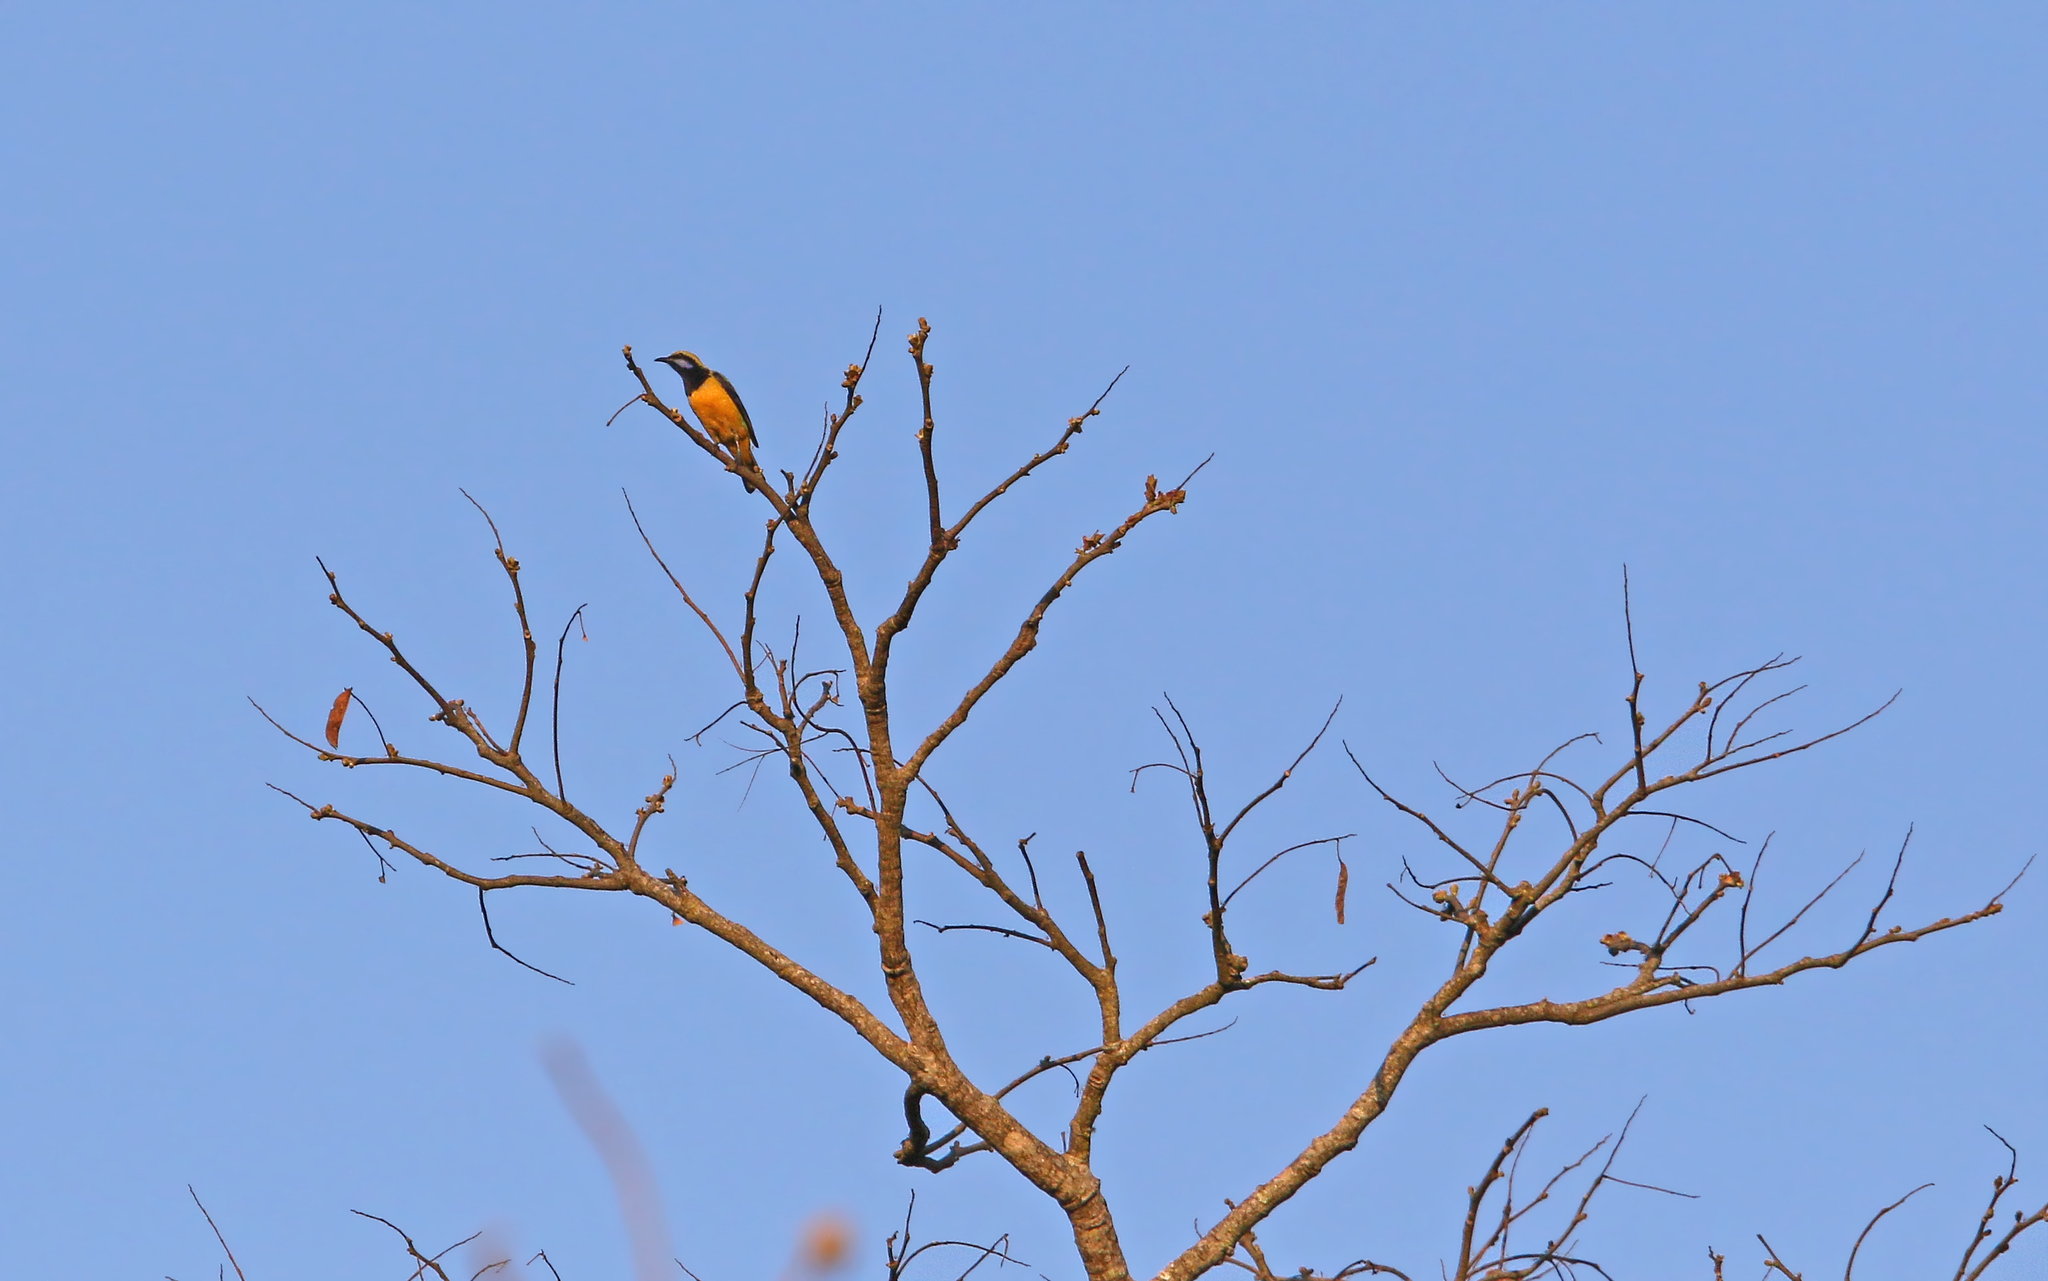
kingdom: Animalia
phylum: Chordata
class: Aves
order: Passeriformes
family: Chloropseidae
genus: Chloropsis
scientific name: Chloropsis hardwickii
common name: Orange-bellied leafbird
